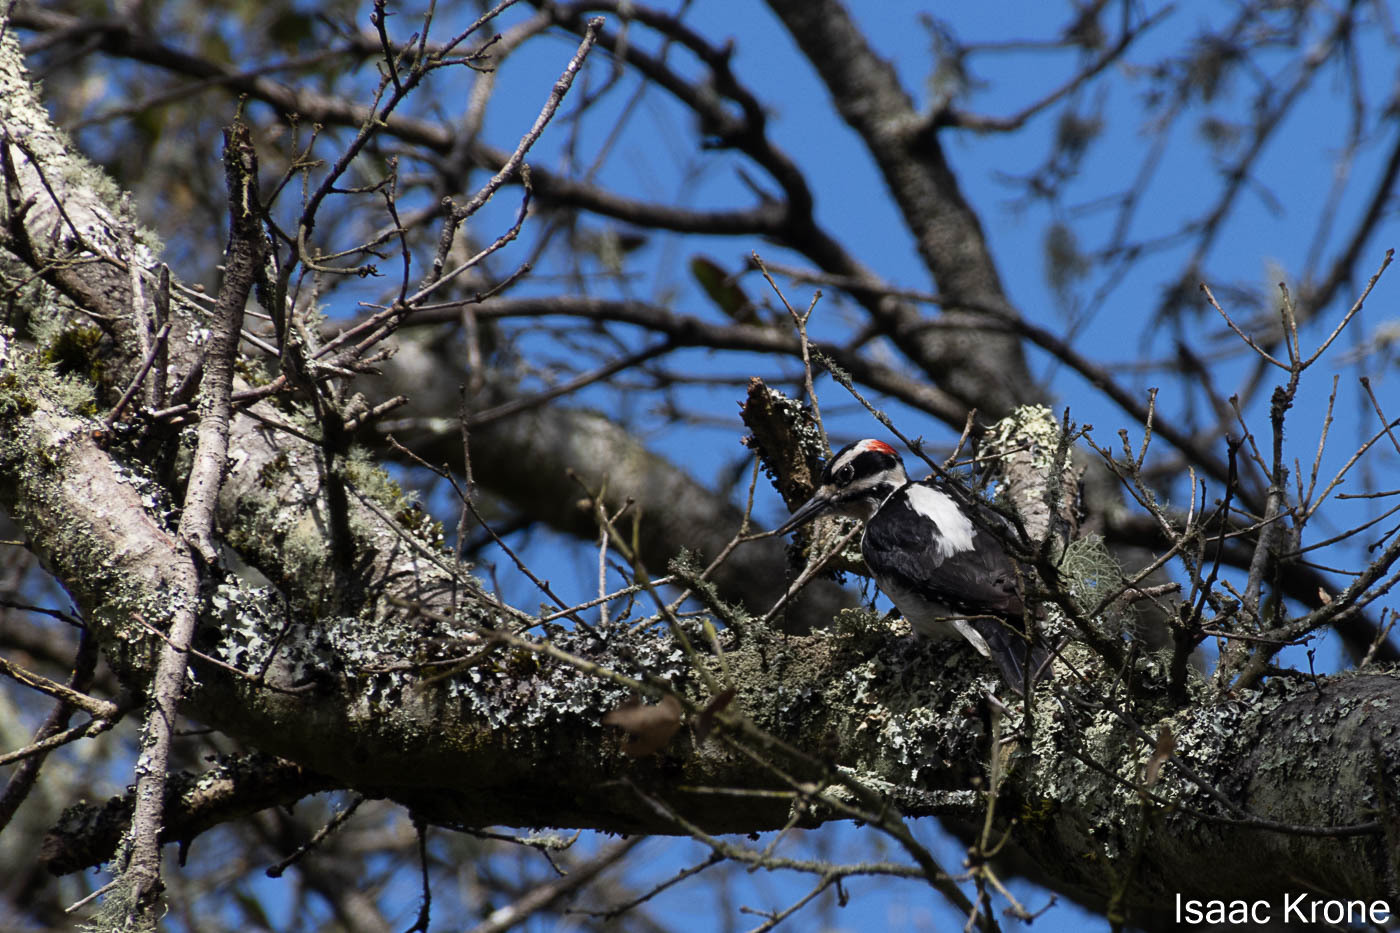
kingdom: Animalia
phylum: Chordata
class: Aves
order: Piciformes
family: Picidae
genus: Leuconotopicus
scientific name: Leuconotopicus villosus
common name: Hairy woodpecker
